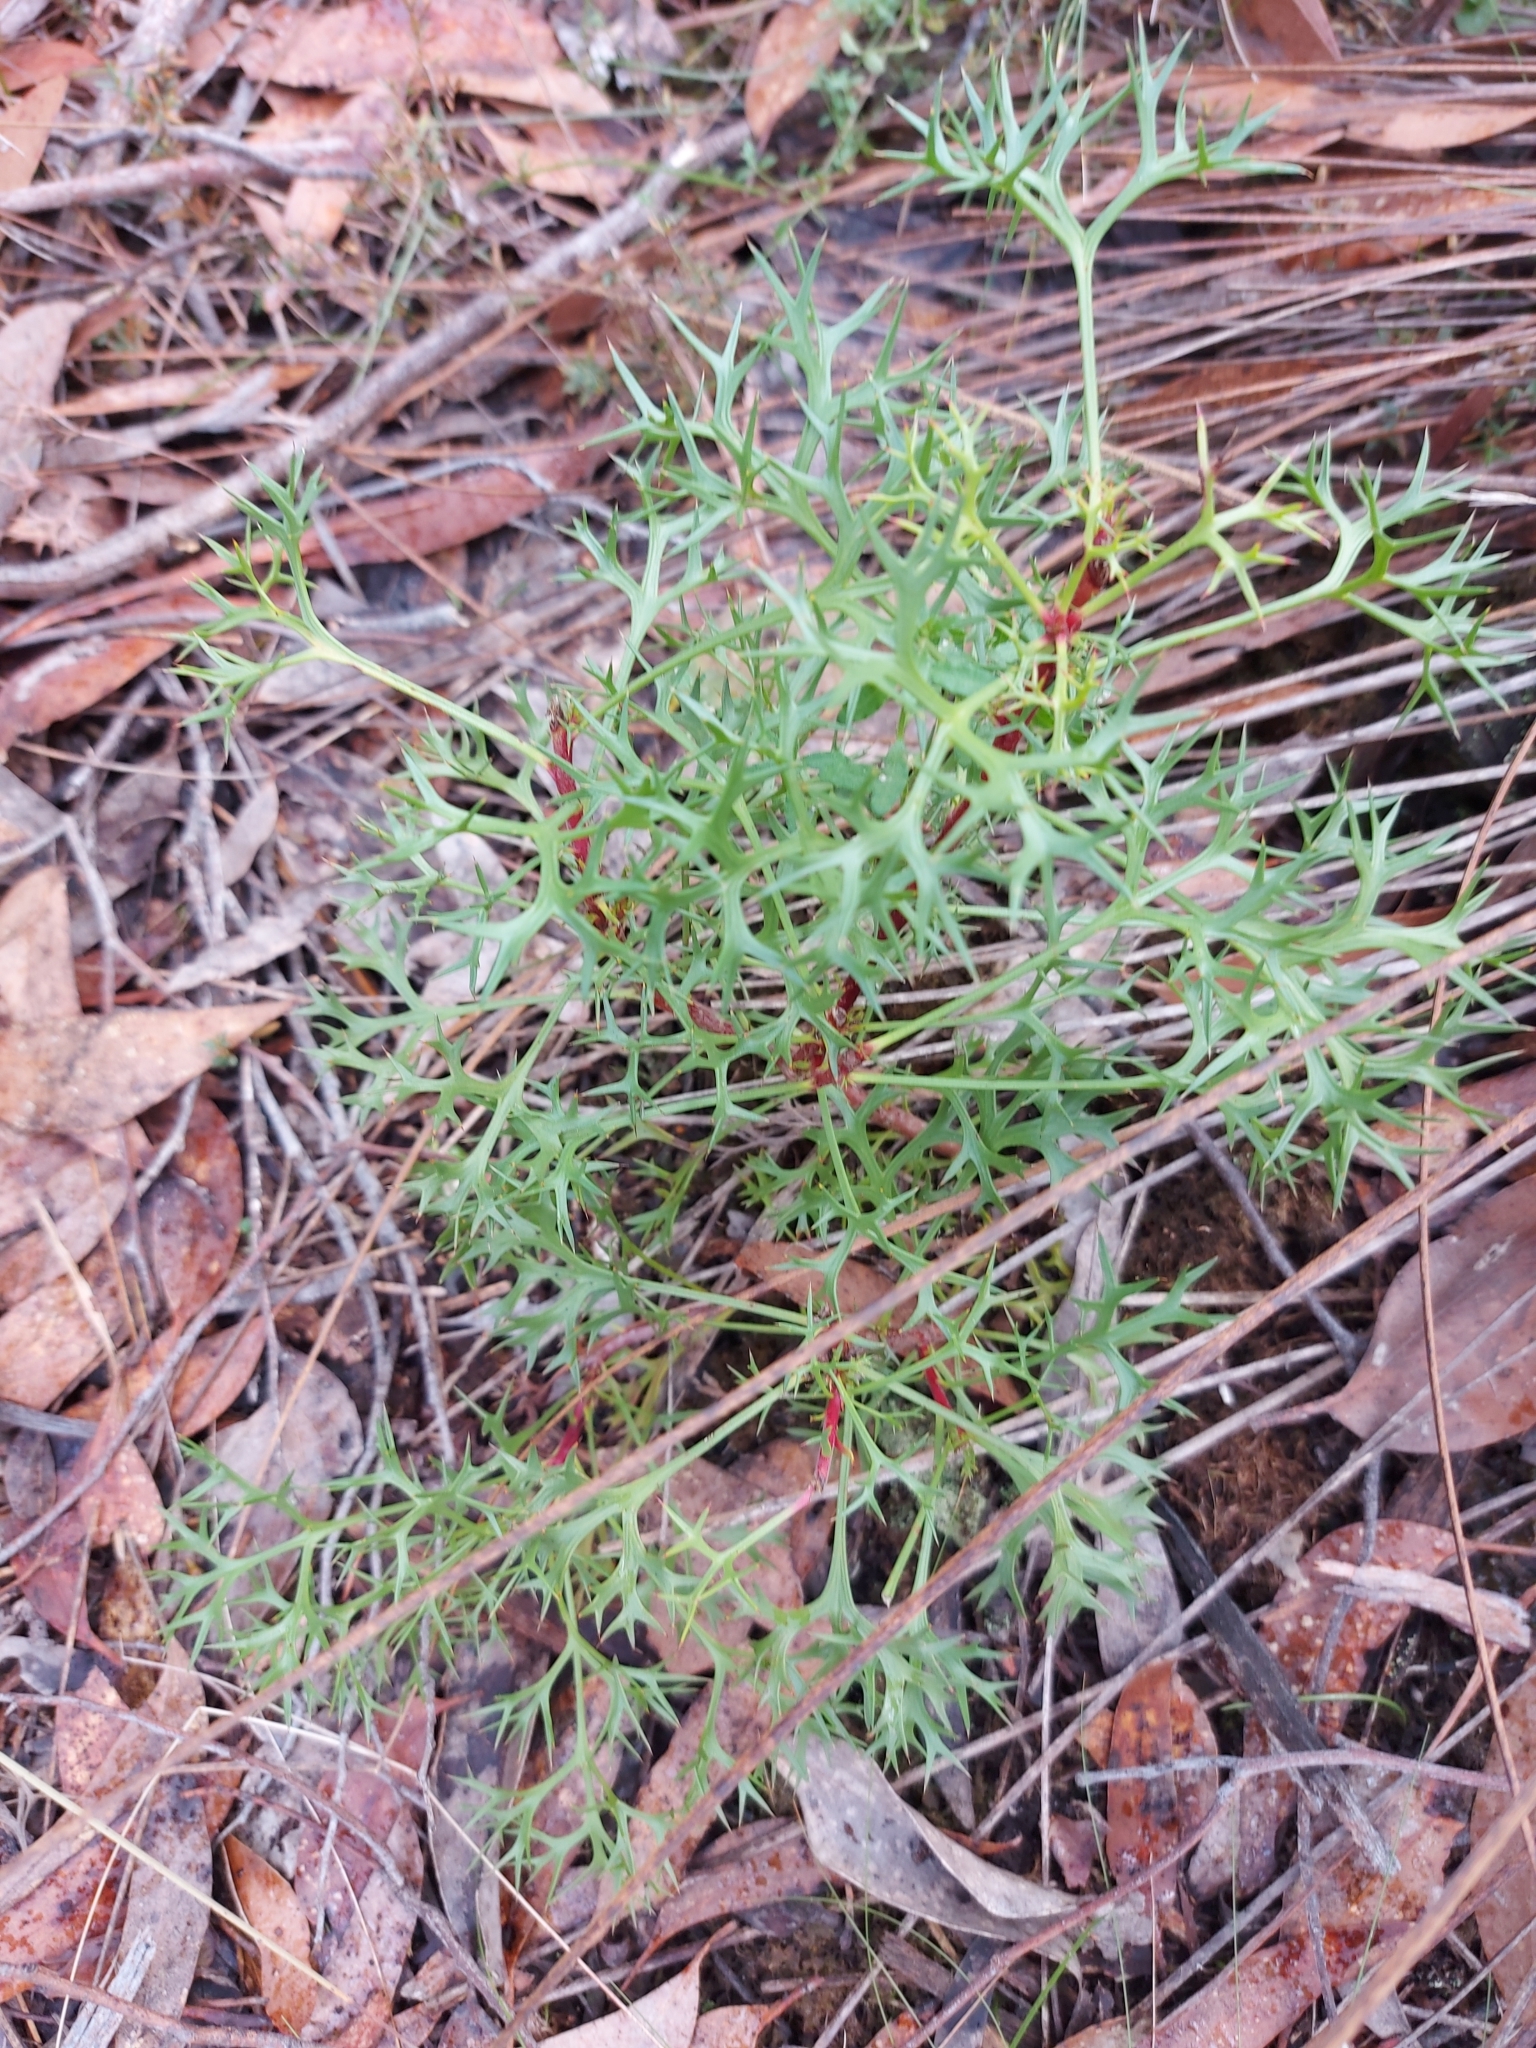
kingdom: Plantae
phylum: Tracheophyta
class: Magnoliopsida
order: Proteales
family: Proteaceae
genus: Isopogon
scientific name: Isopogon ceratophyllus
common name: Horny cone-bush
